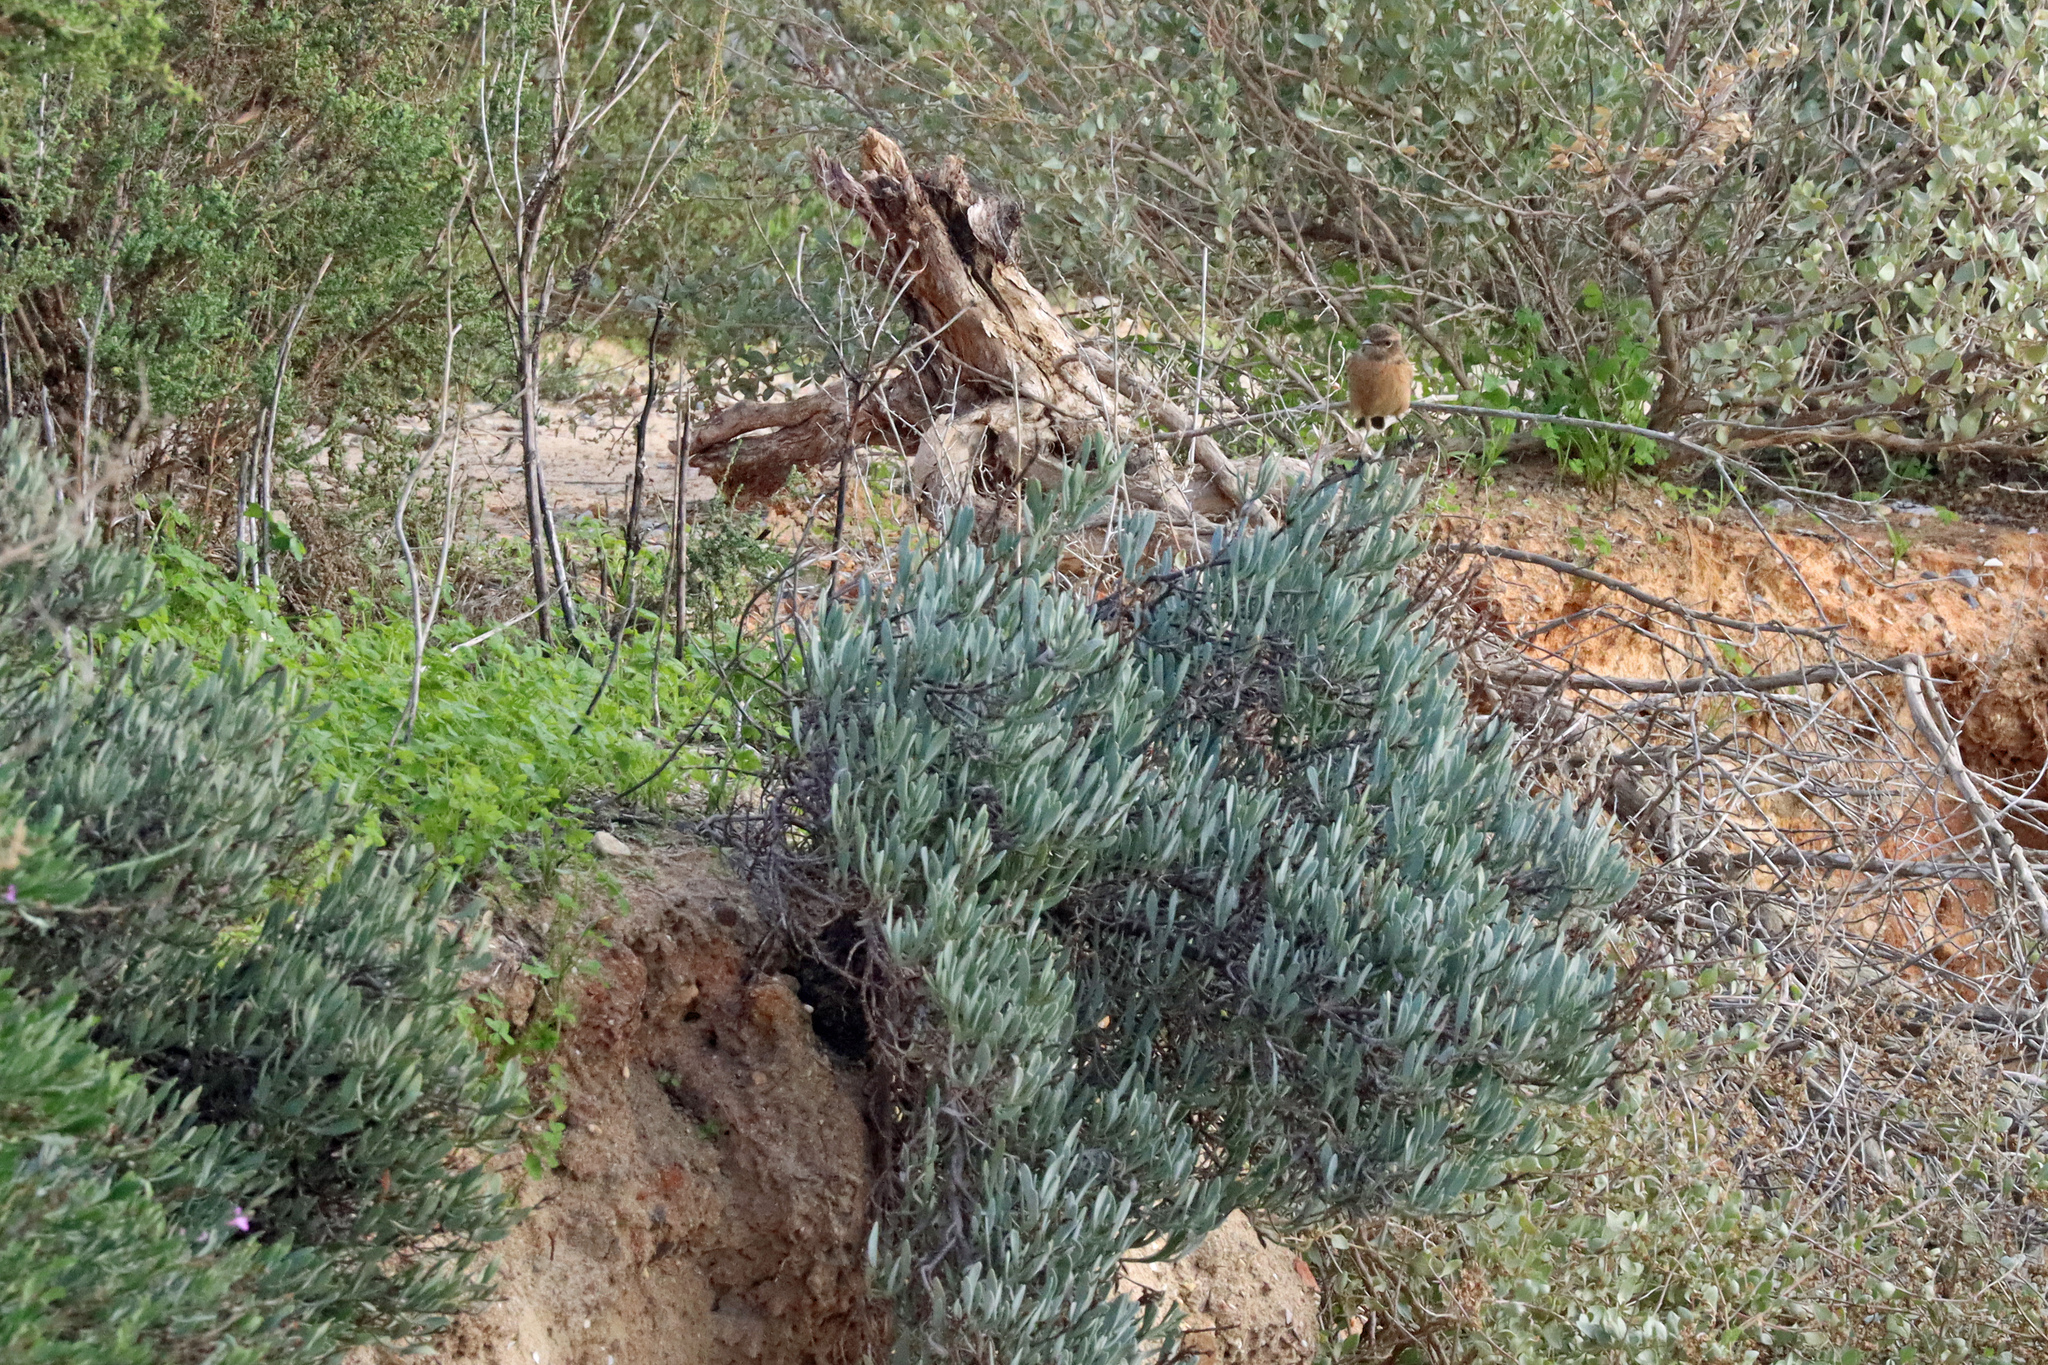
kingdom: Animalia
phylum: Chordata
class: Aves
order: Passeriformes
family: Muscicapidae
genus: Saxicola
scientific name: Saxicola rubicola
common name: European stonechat
